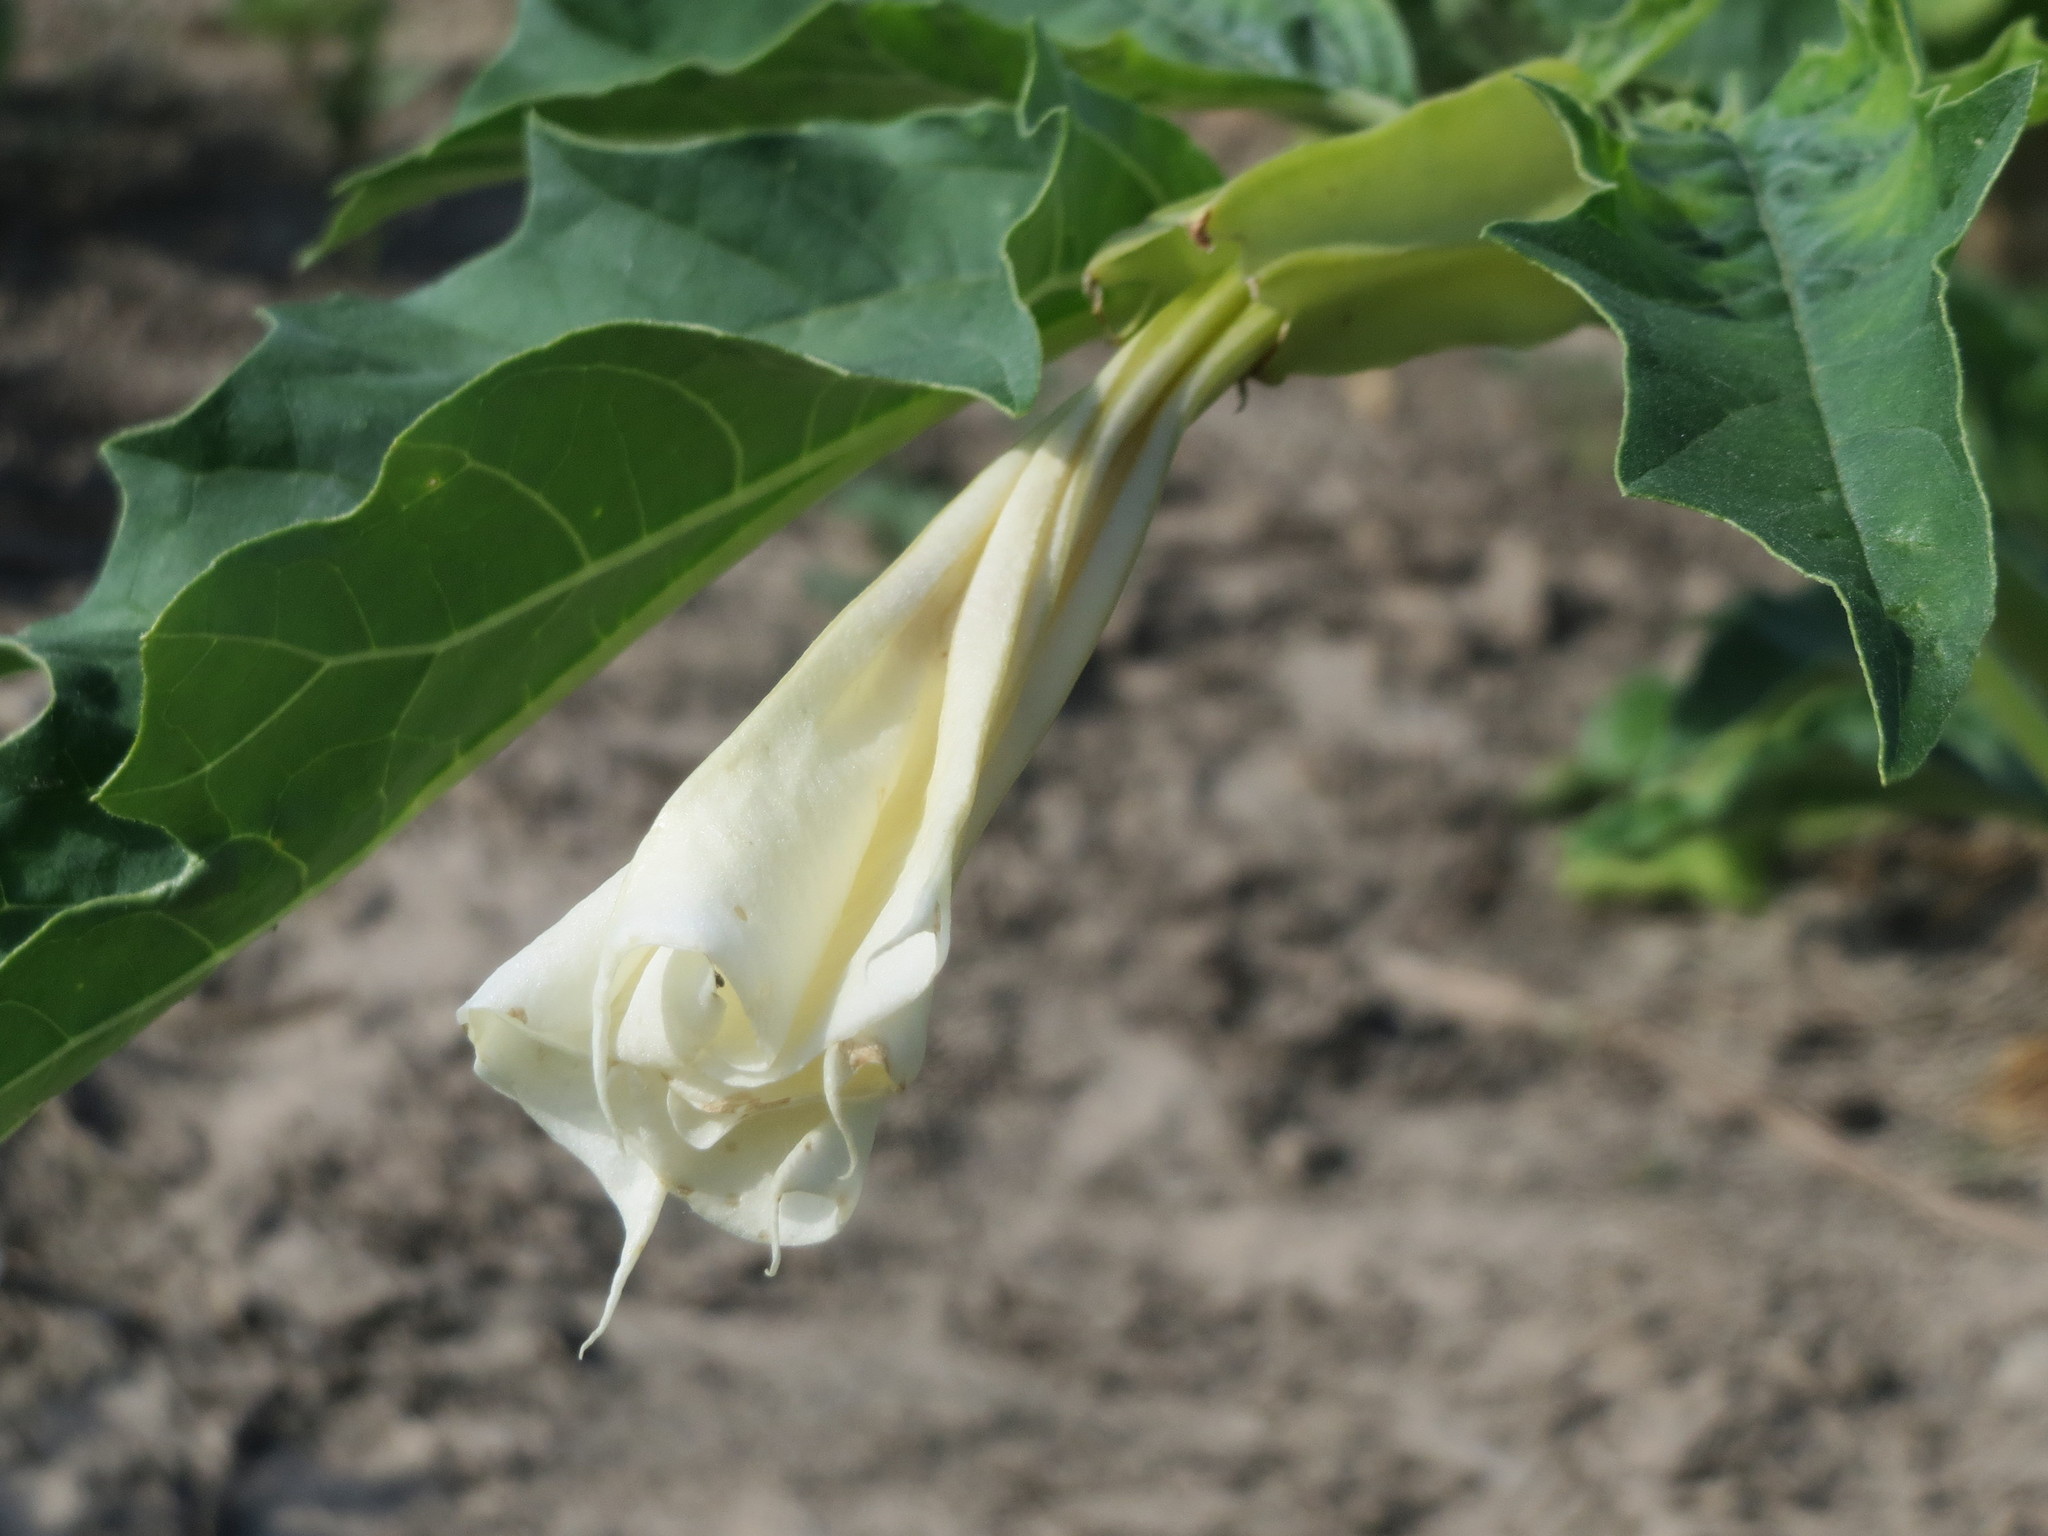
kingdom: Plantae
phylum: Tracheophyta
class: Magnoliopsida
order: Solanales
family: Solanaceae
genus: Datura
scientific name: Datura stramonium
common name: Thorn-apple
